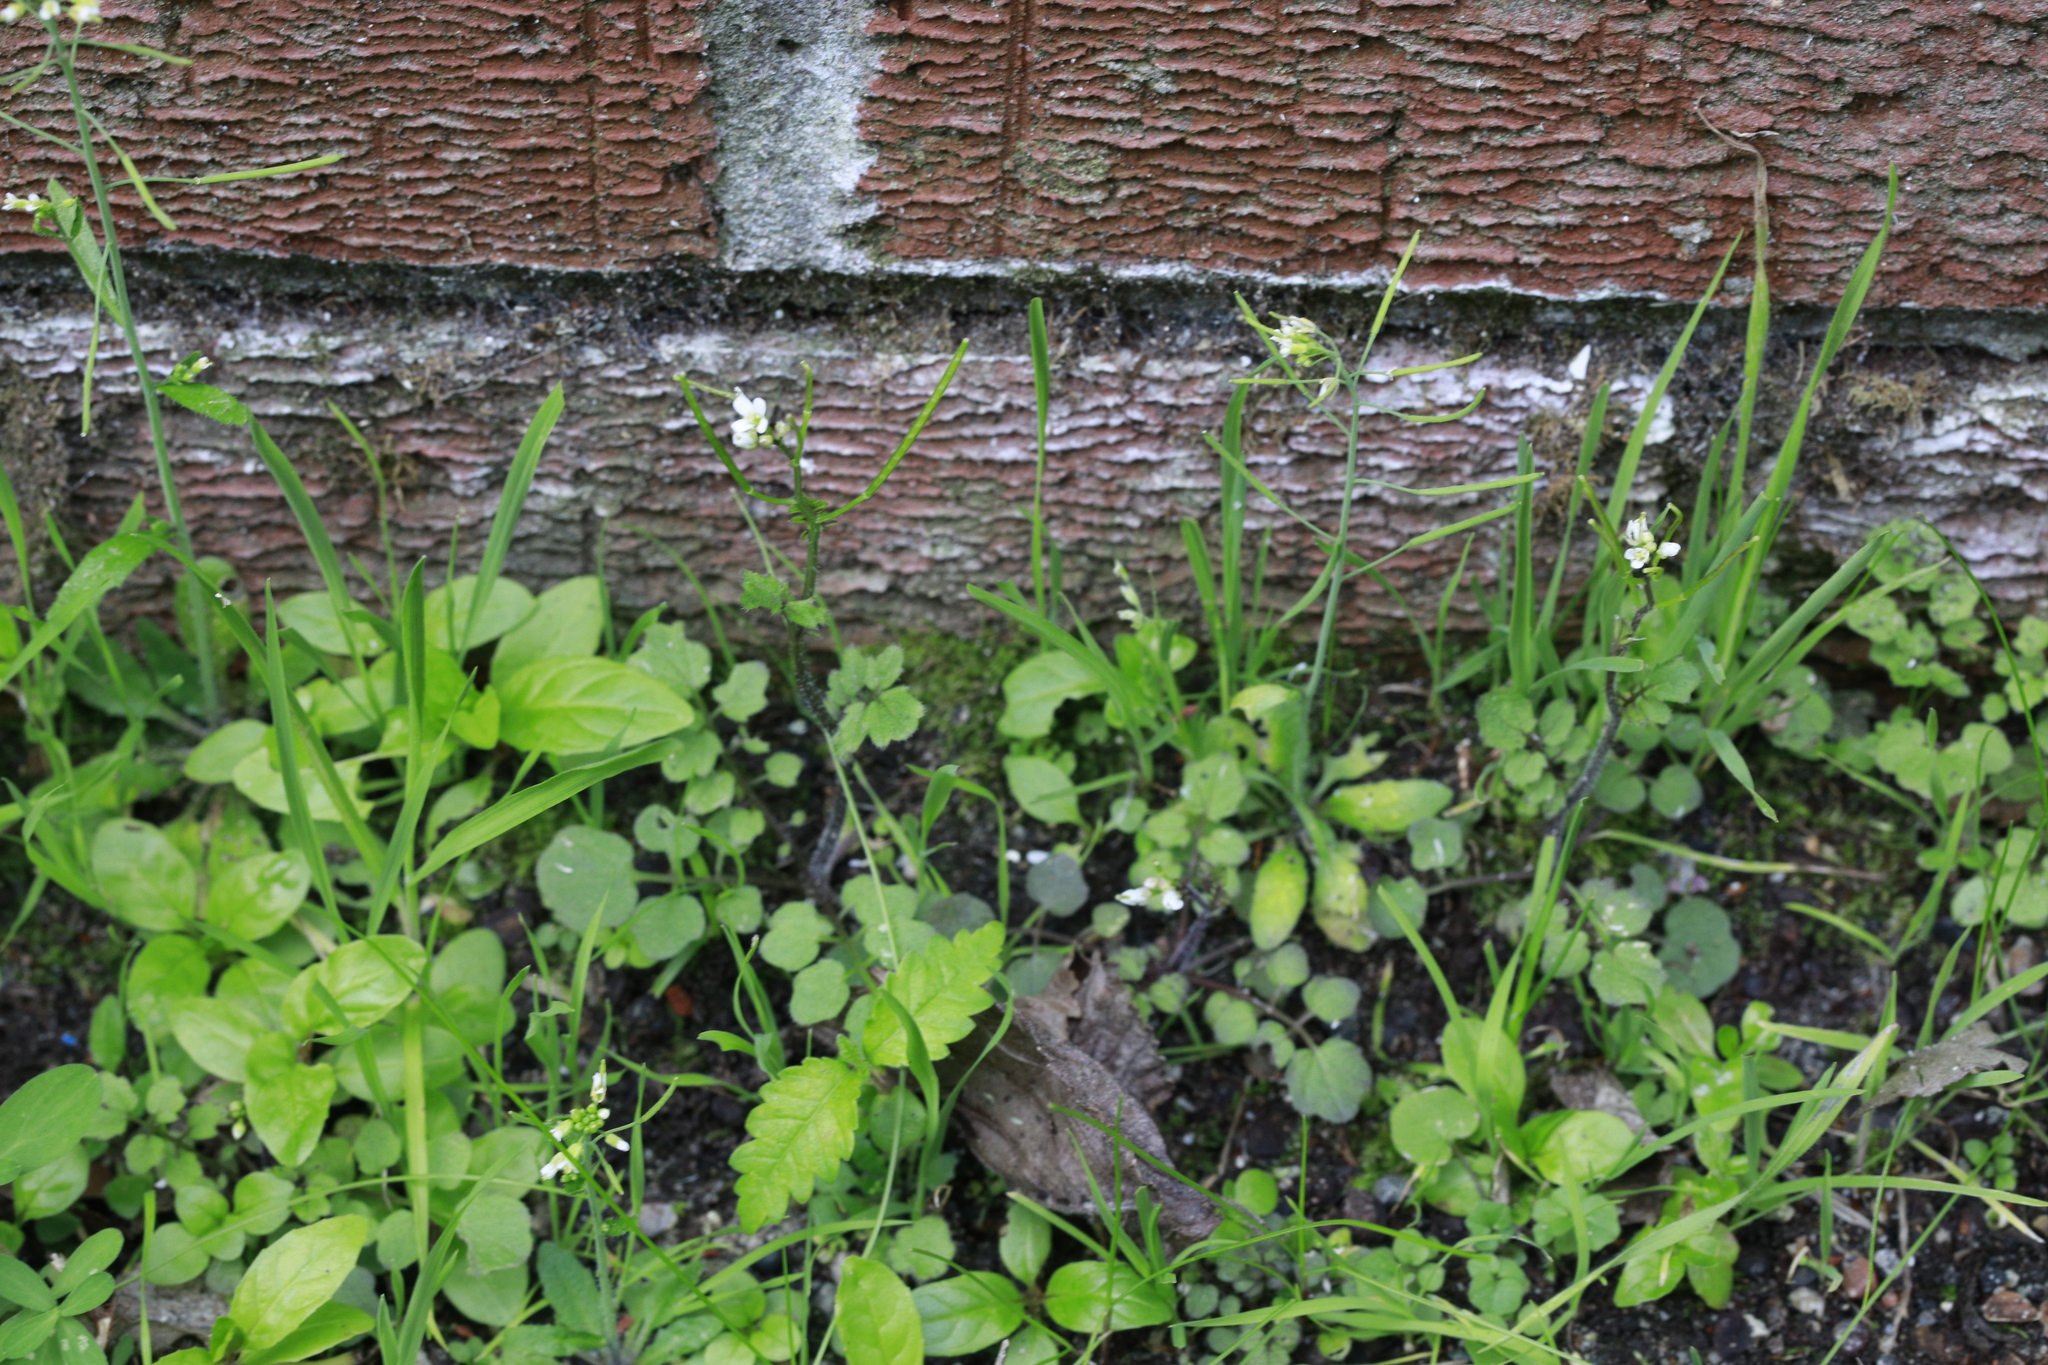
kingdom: Plantae
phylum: Tracheophyta
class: Magnoliopsida
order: Brassicales
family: Brassicaceae
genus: Cardamine
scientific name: Cardamine hirsuta
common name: Hairy bittercress
